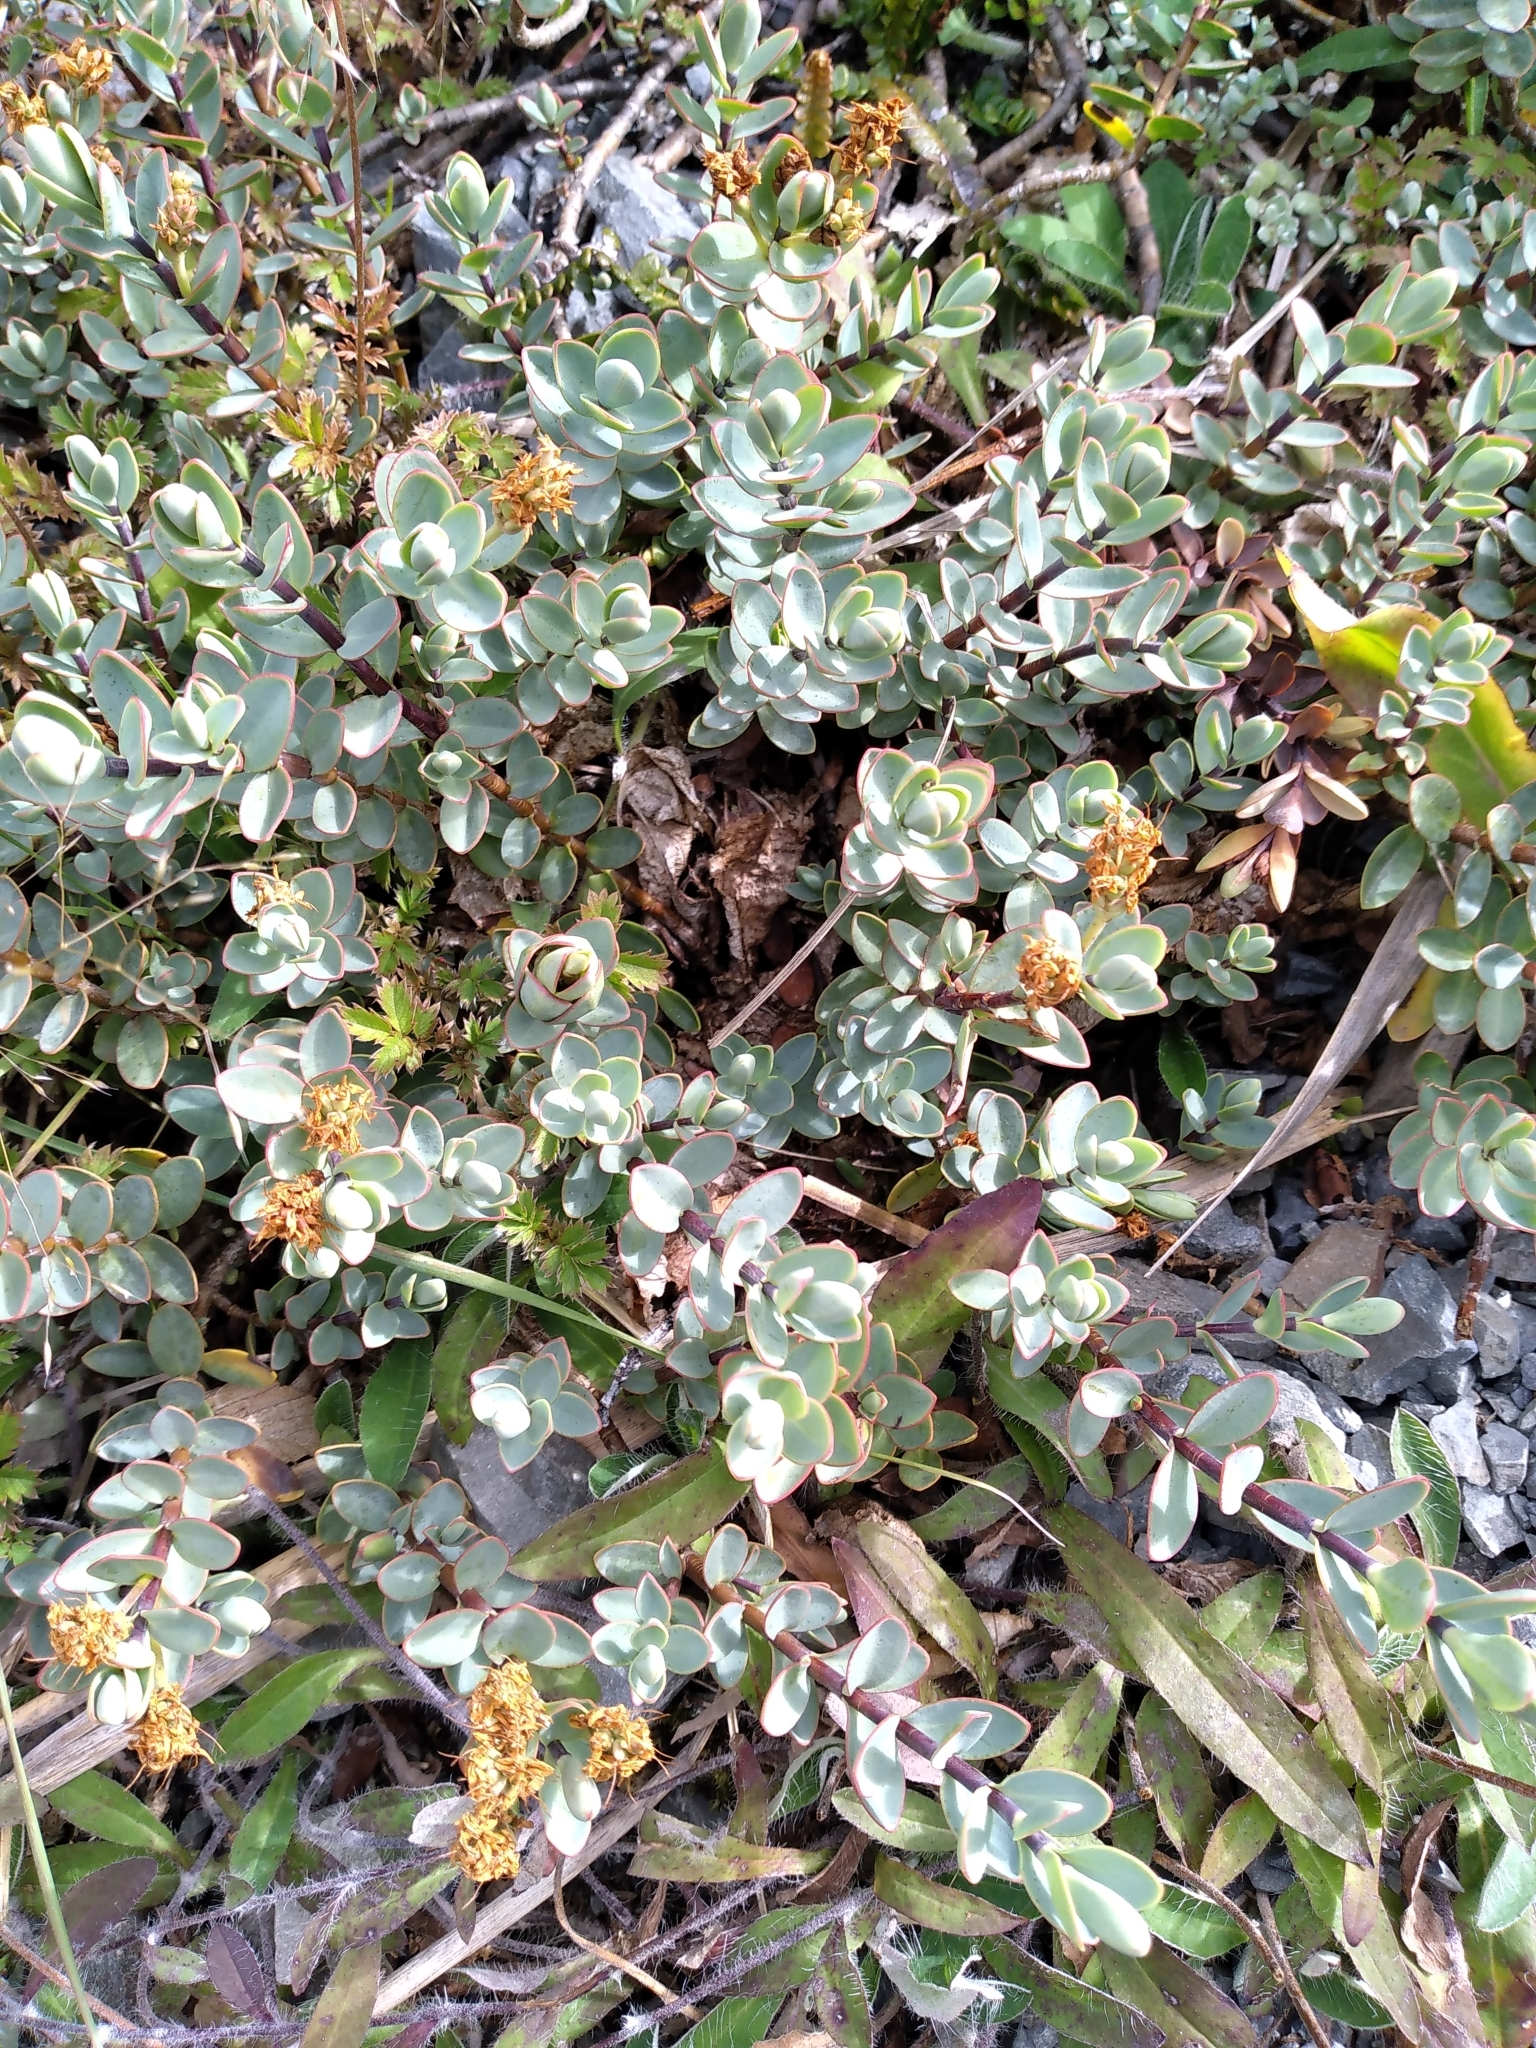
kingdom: Plantae
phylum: Tracheophyta
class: Magnoliopsida
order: Lamiales
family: Plantaginaceae
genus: Veronica
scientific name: Veronica pinguifolia
